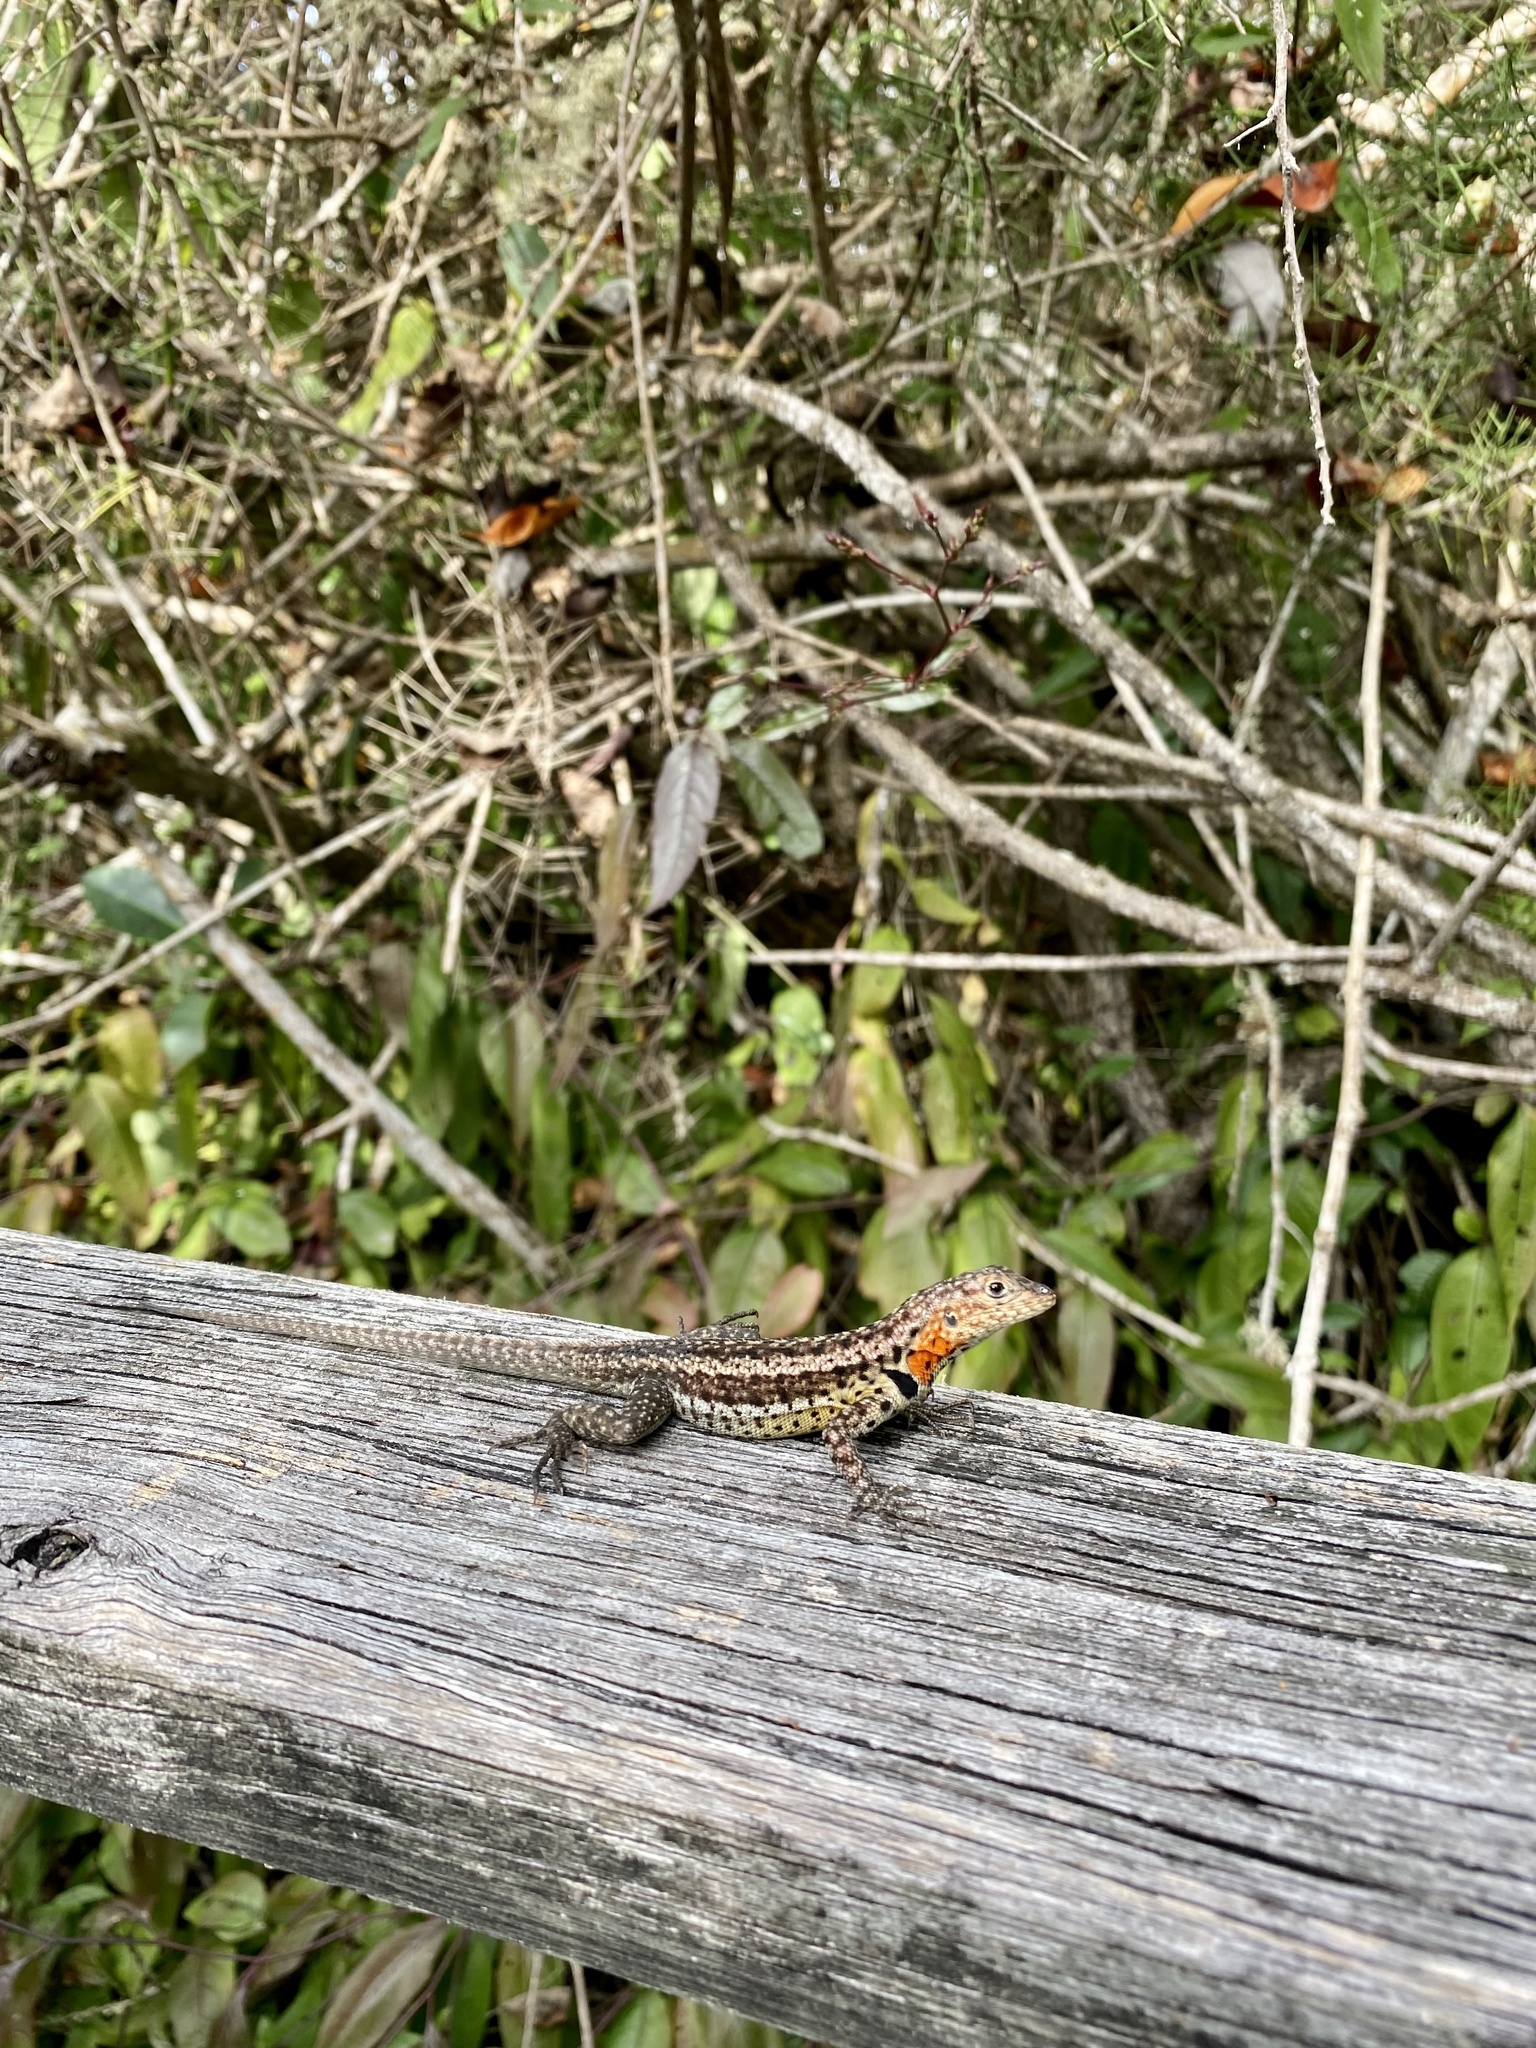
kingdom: Animalia
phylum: Chordata
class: Squamata
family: Tropiduridae
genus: Microlophus
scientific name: Microlophus albemarlensis
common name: Galapagos lava lizard
